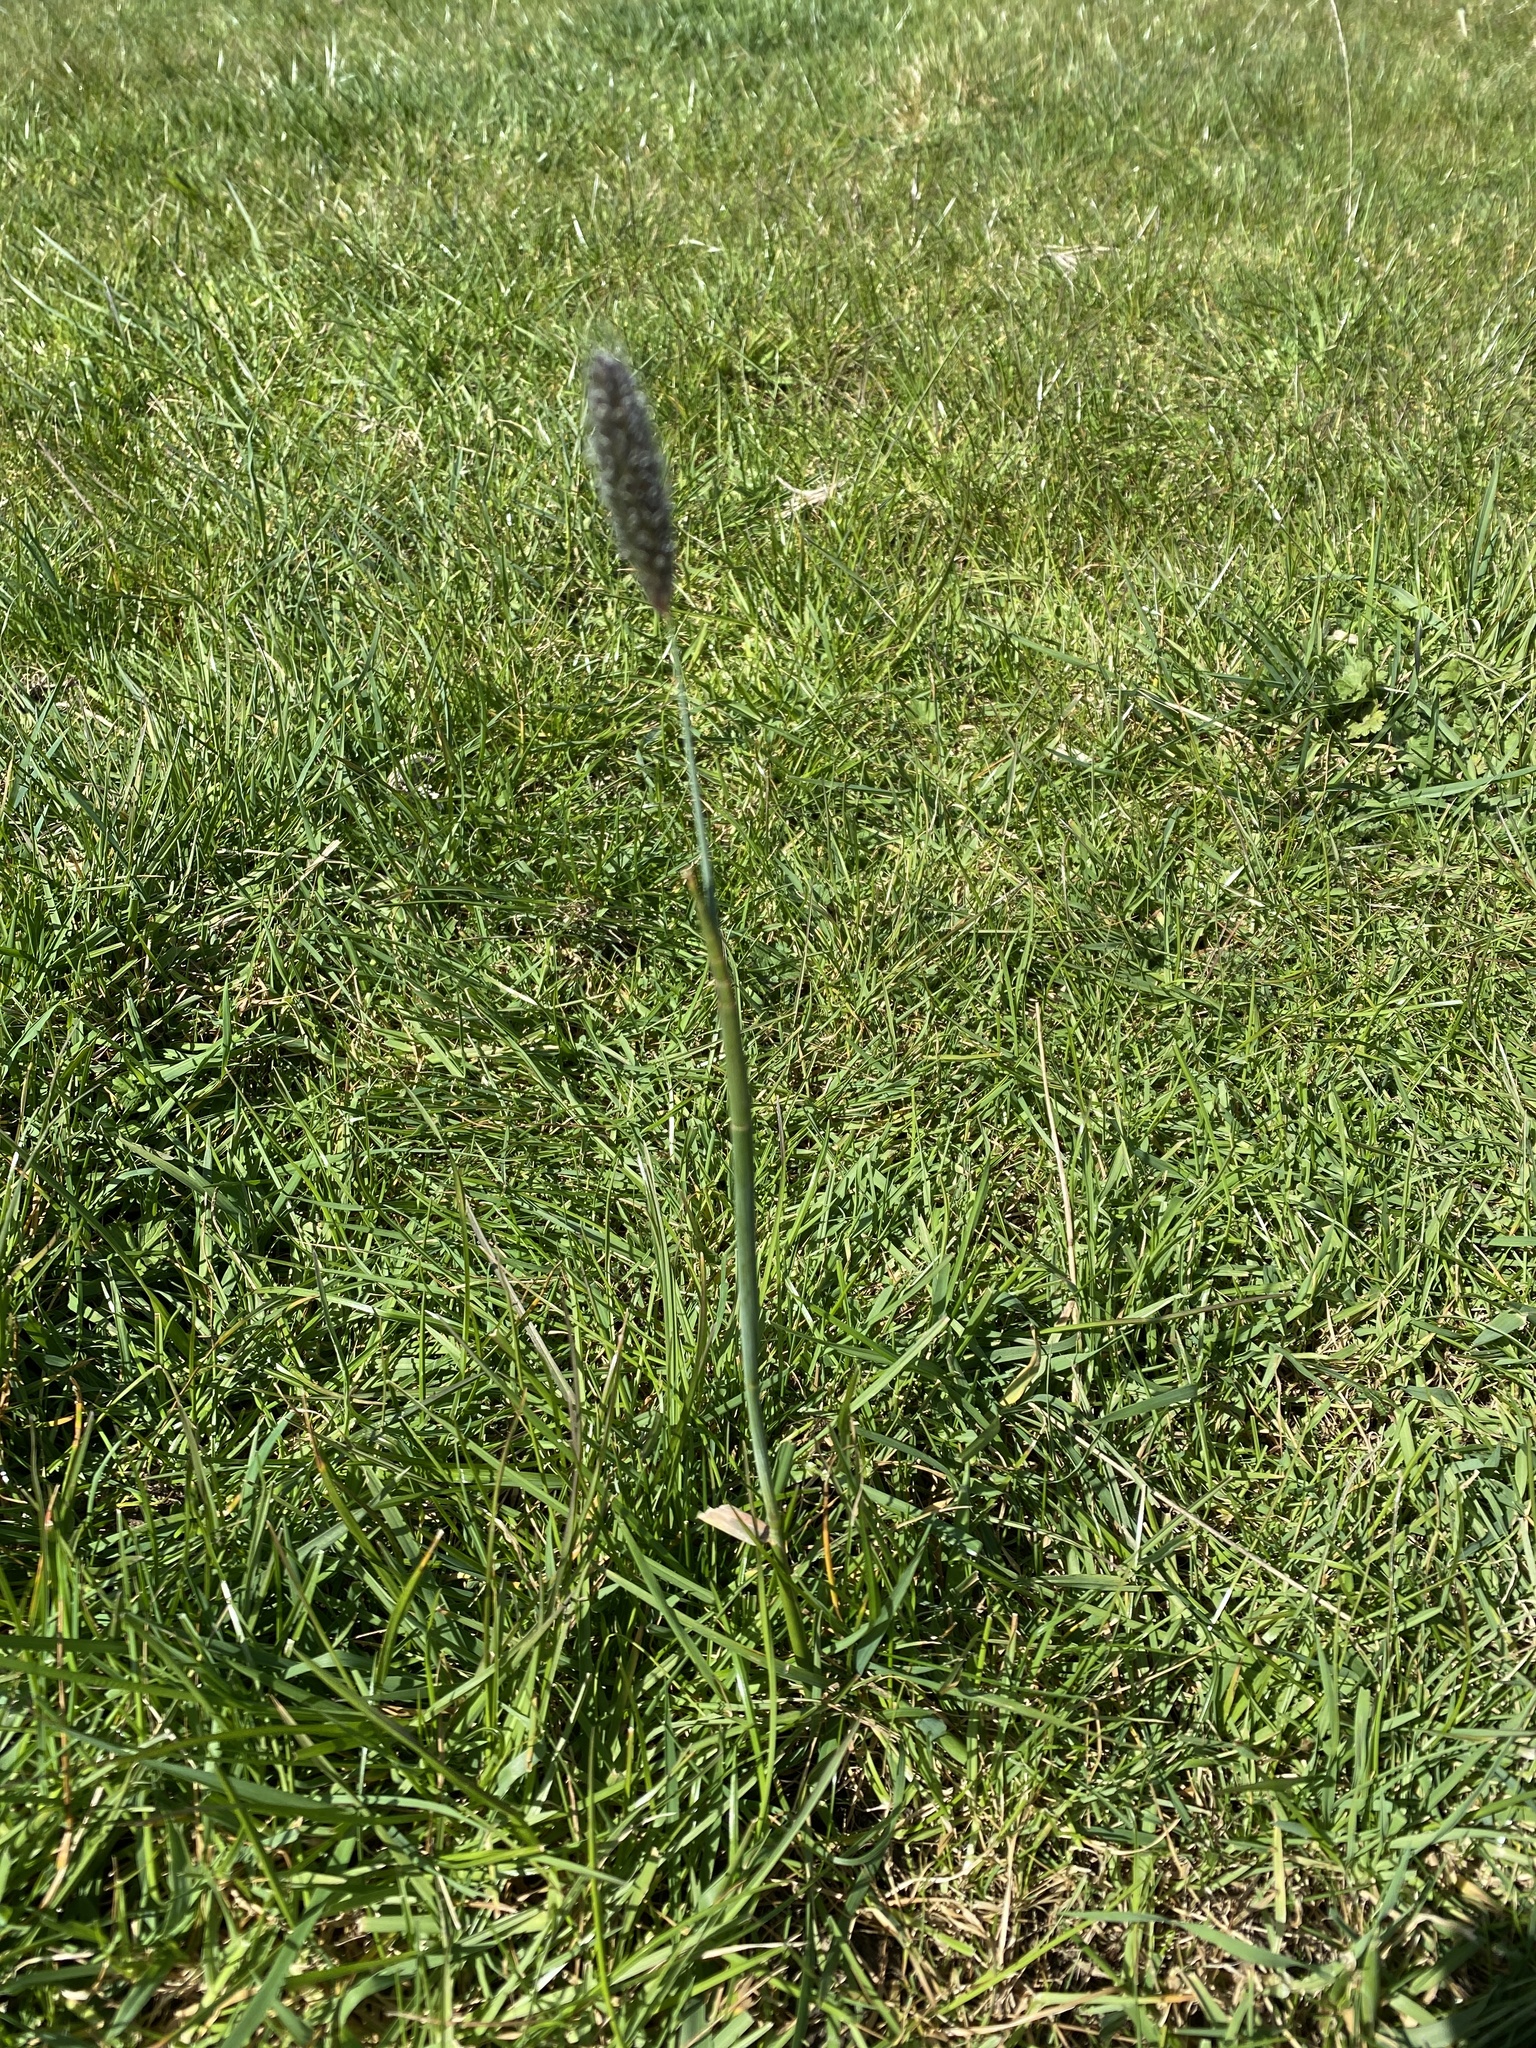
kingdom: Plantae
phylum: Tracheophyta
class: Liliopsida
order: Poales
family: Poaceae
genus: Alopecurus
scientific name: Alopecurus pratensis
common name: Meadow foxtail
